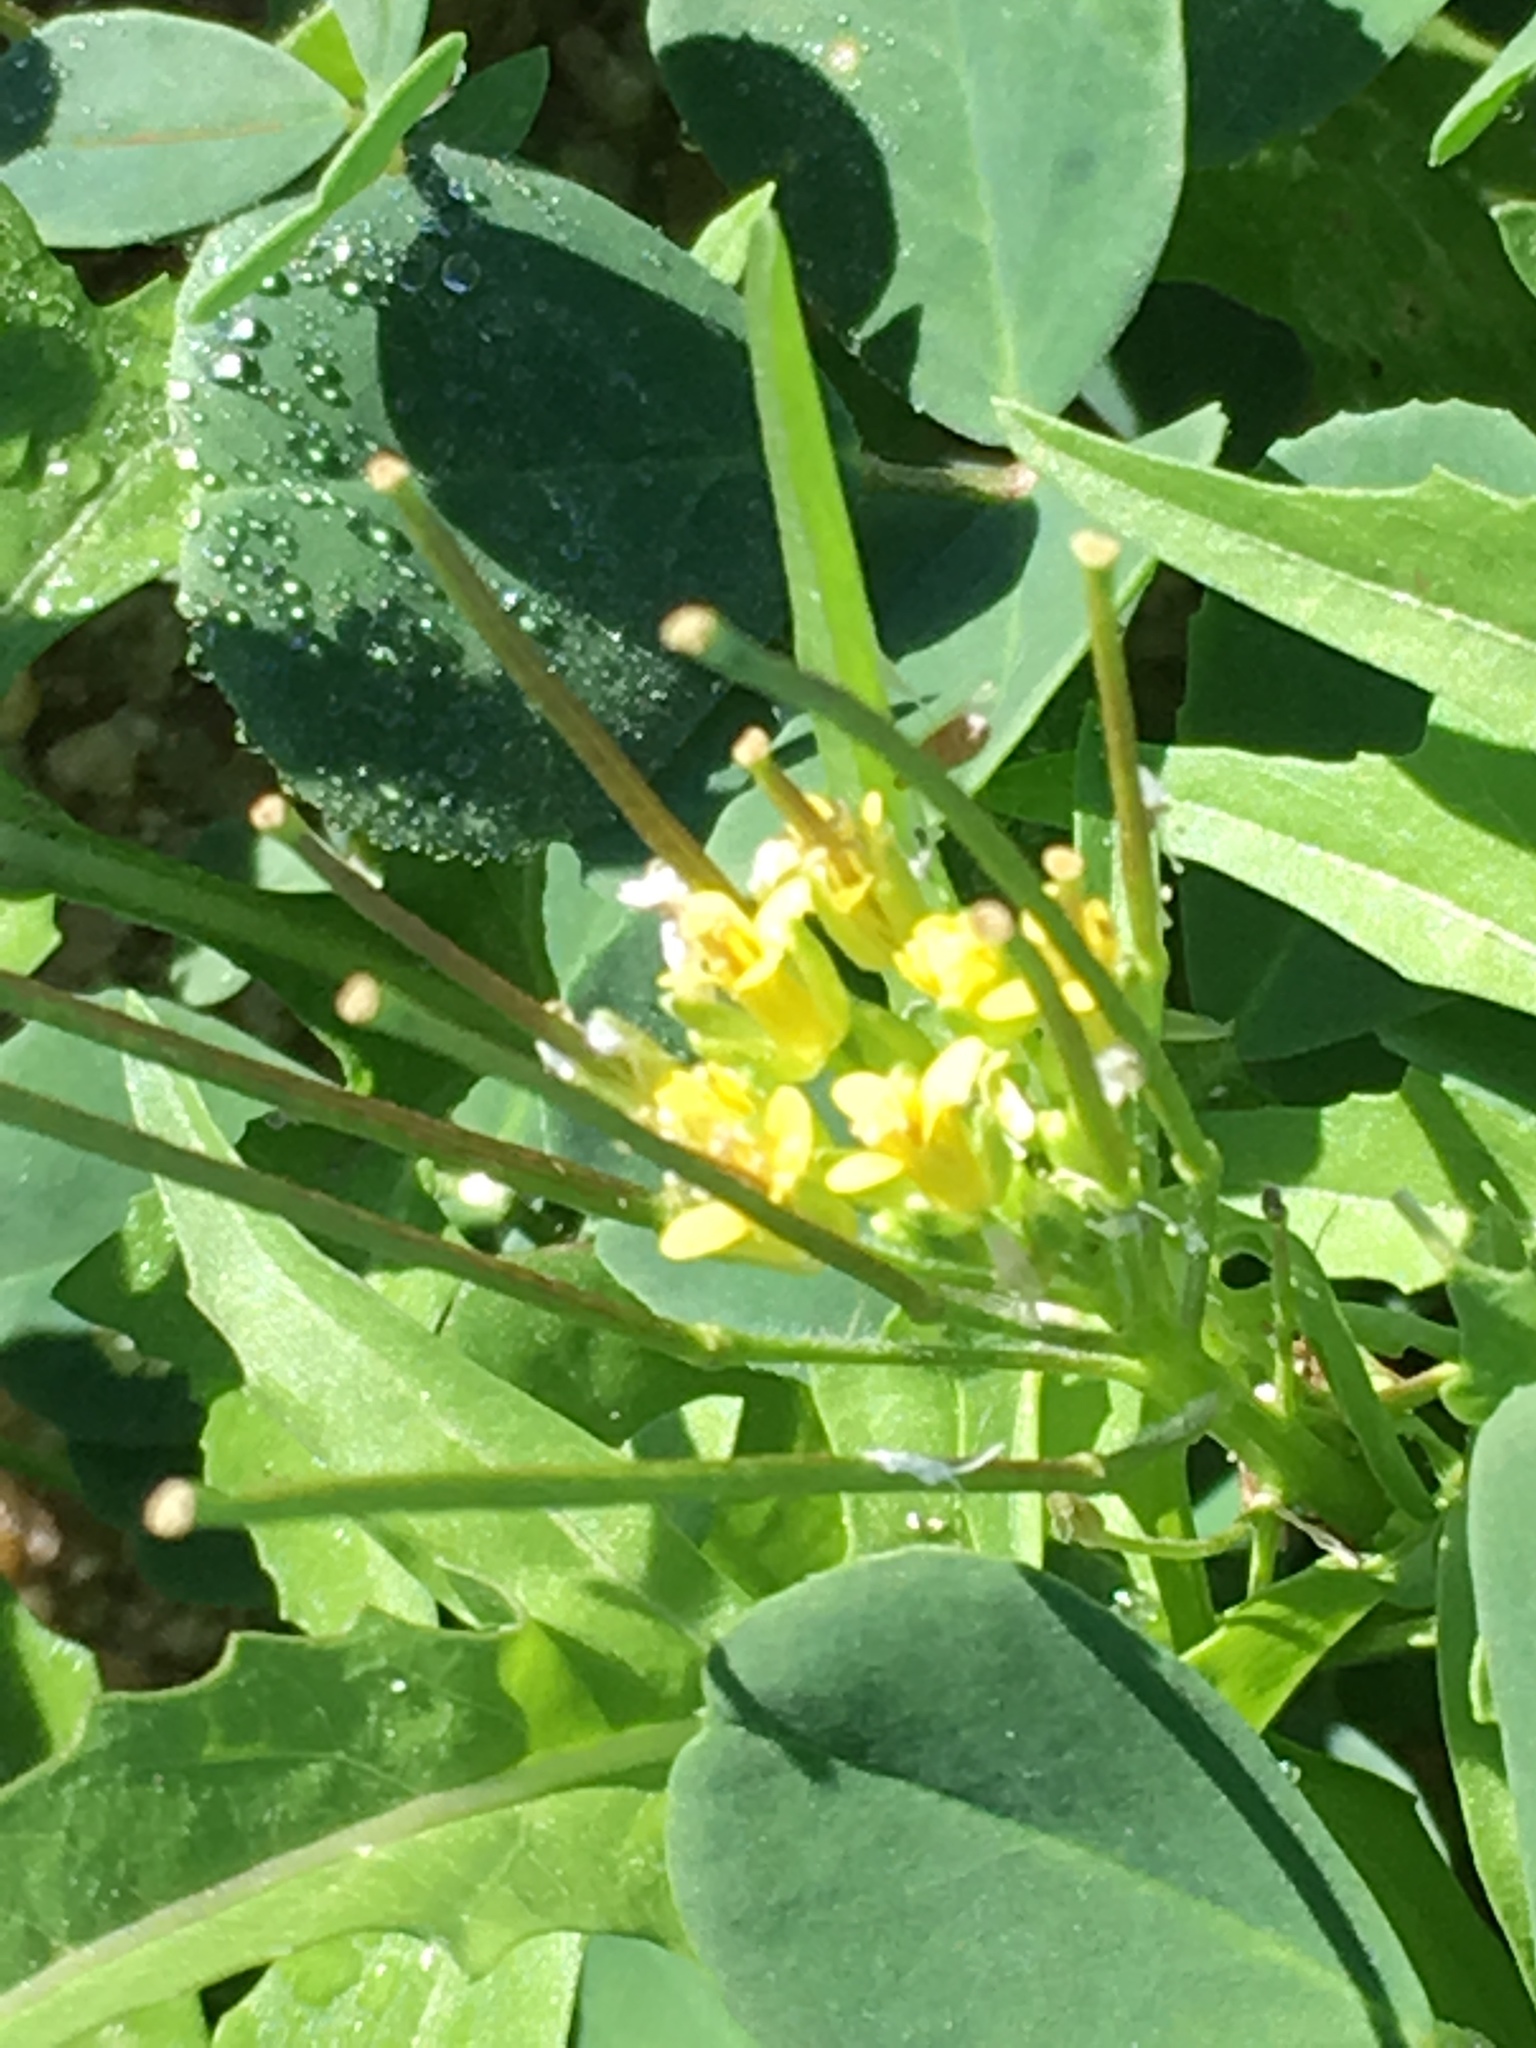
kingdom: Plantae
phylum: Tracheophyta
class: Magnoliopsida
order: Brassicales
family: Brassicaceae
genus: Sisymbrium
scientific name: Sisymbrium irio
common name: London rocket
